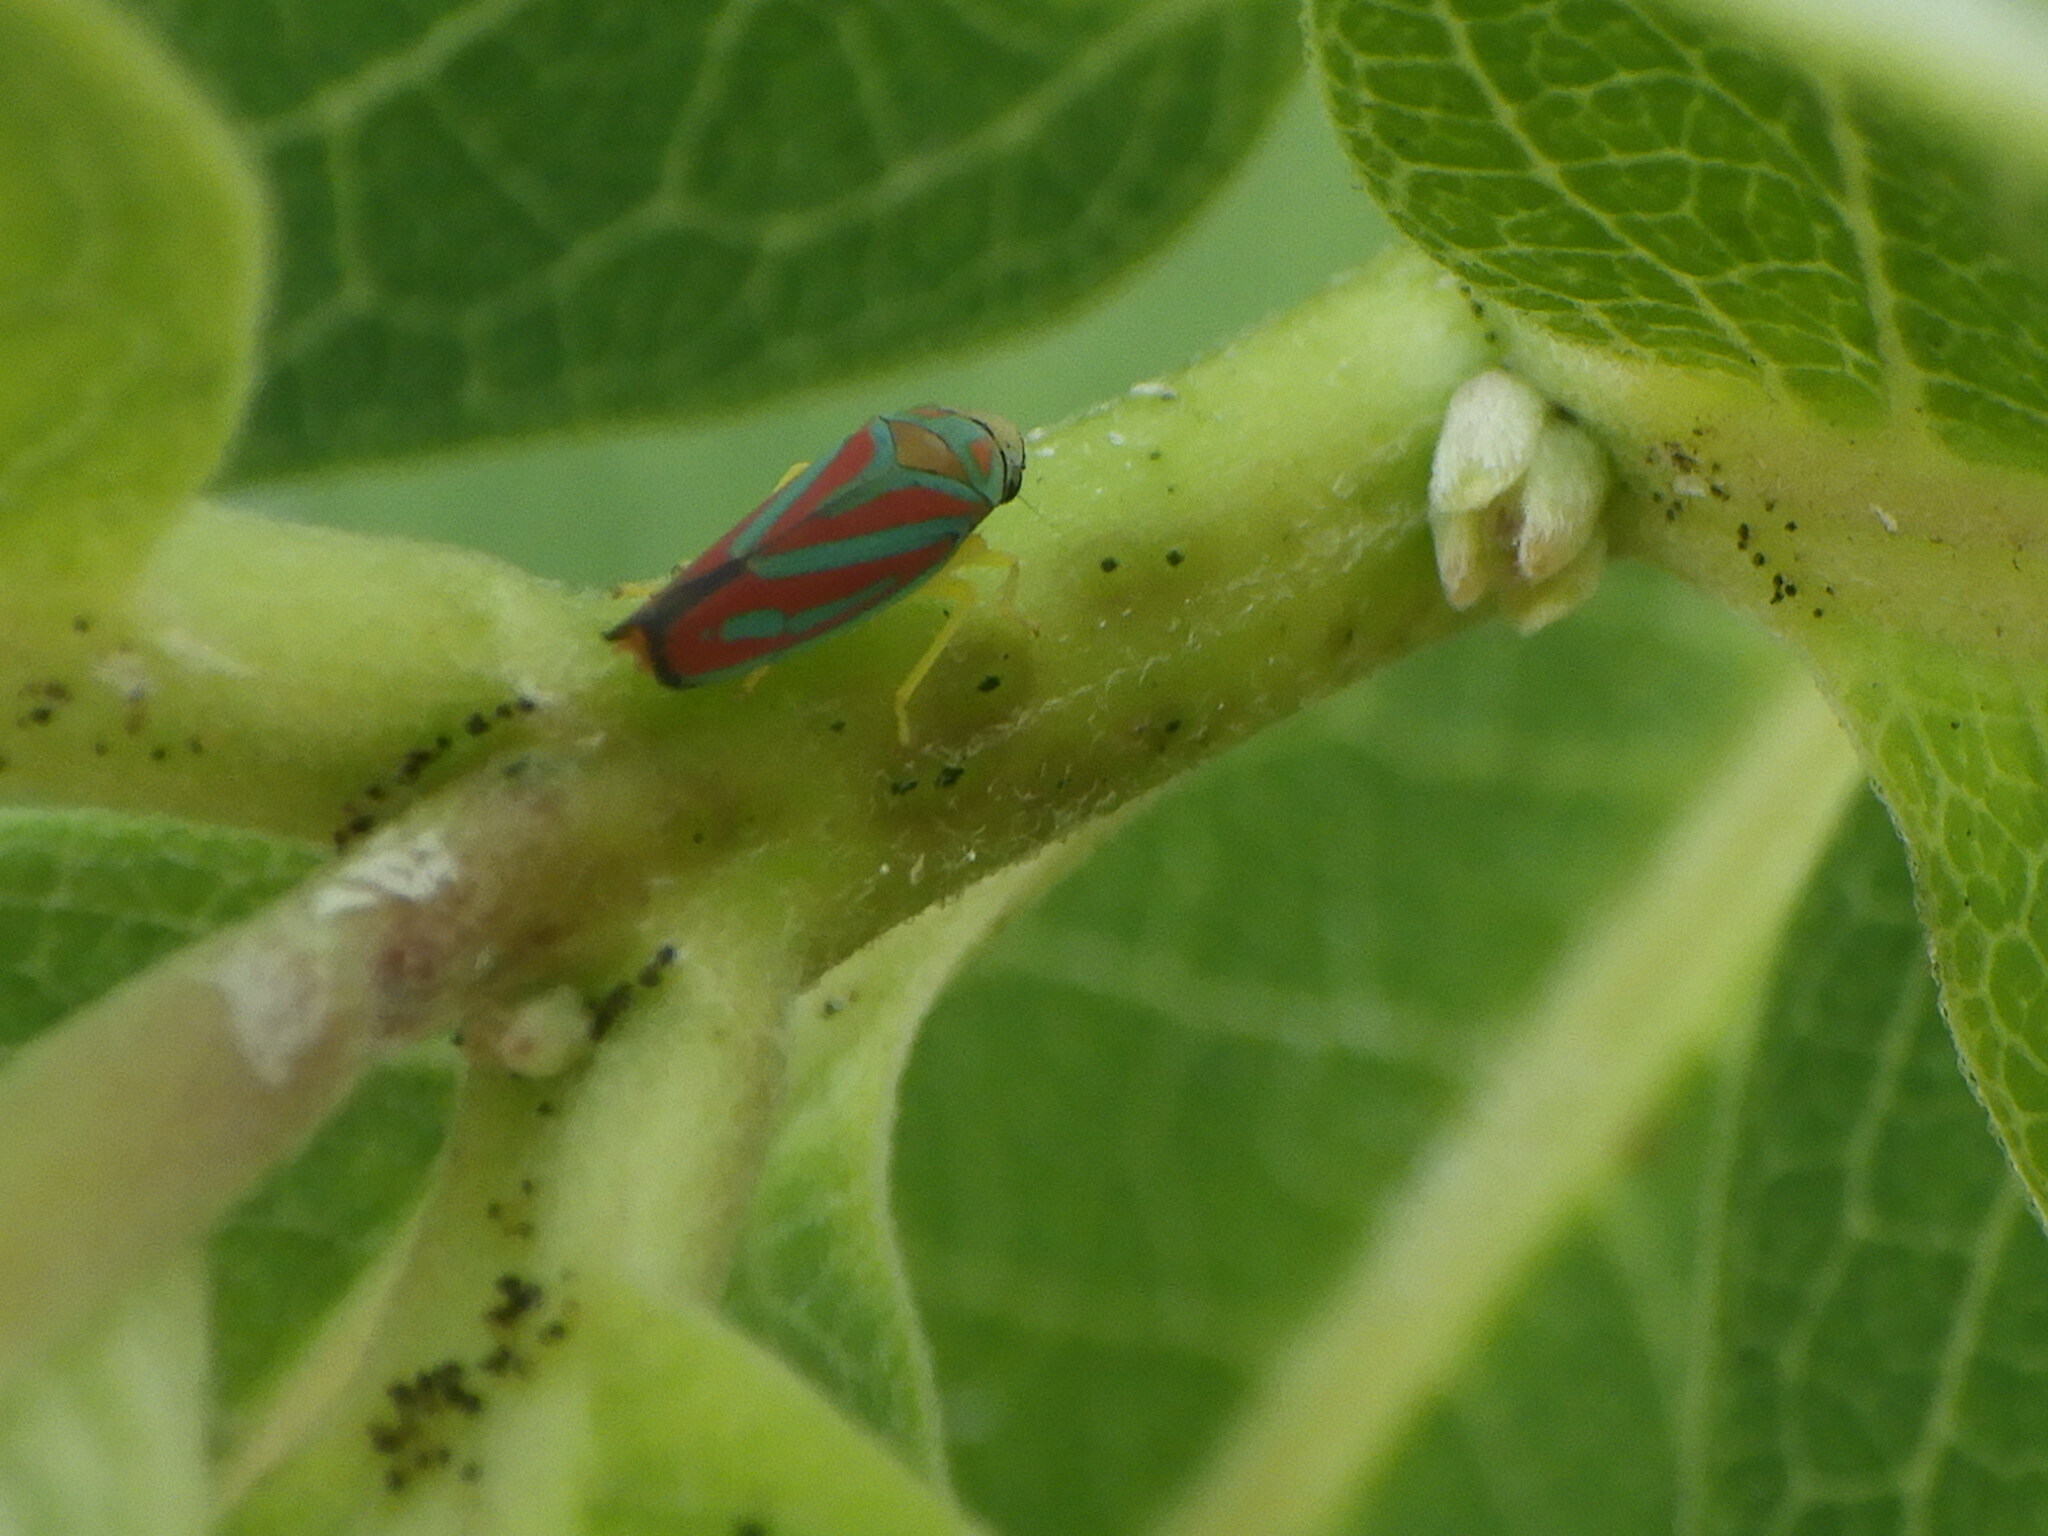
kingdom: Animalia
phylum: Arthropoda
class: Insecta
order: Hemiptera
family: Cicadellidae
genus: Graphocephala
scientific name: Graphocephala coccinea
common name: Candy-striped leafhopper
